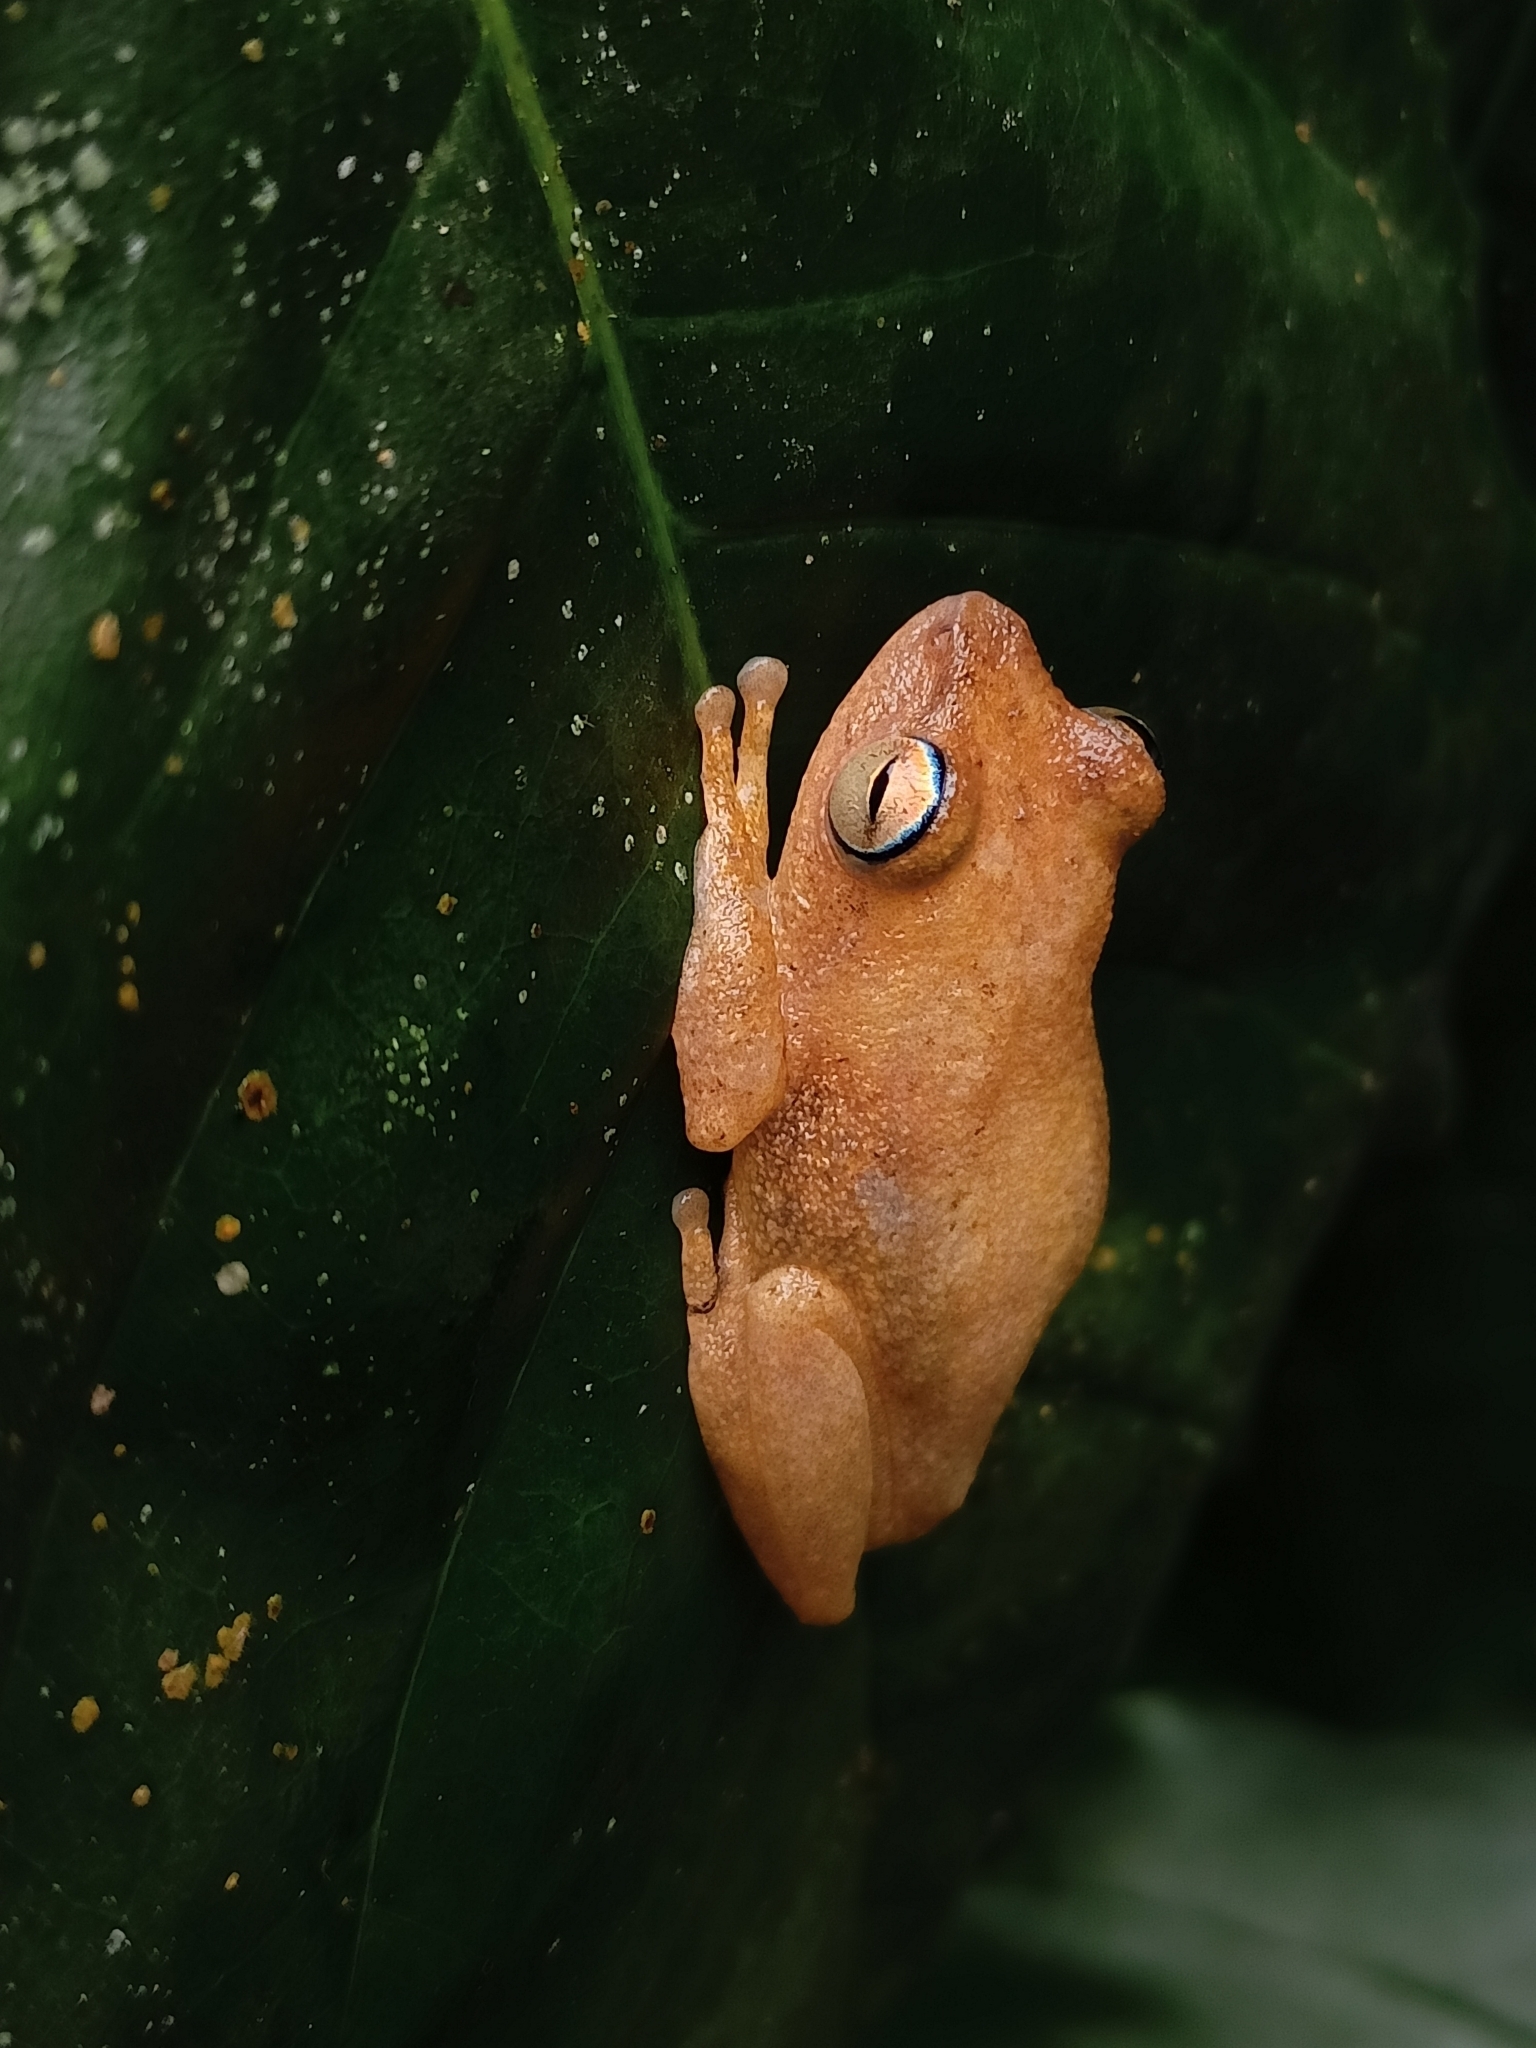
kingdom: Animalia
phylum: Chordata
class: Amphibia
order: Anura
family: Rhacophoridae
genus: Raorchestes
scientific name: Raorchestes luteolus
